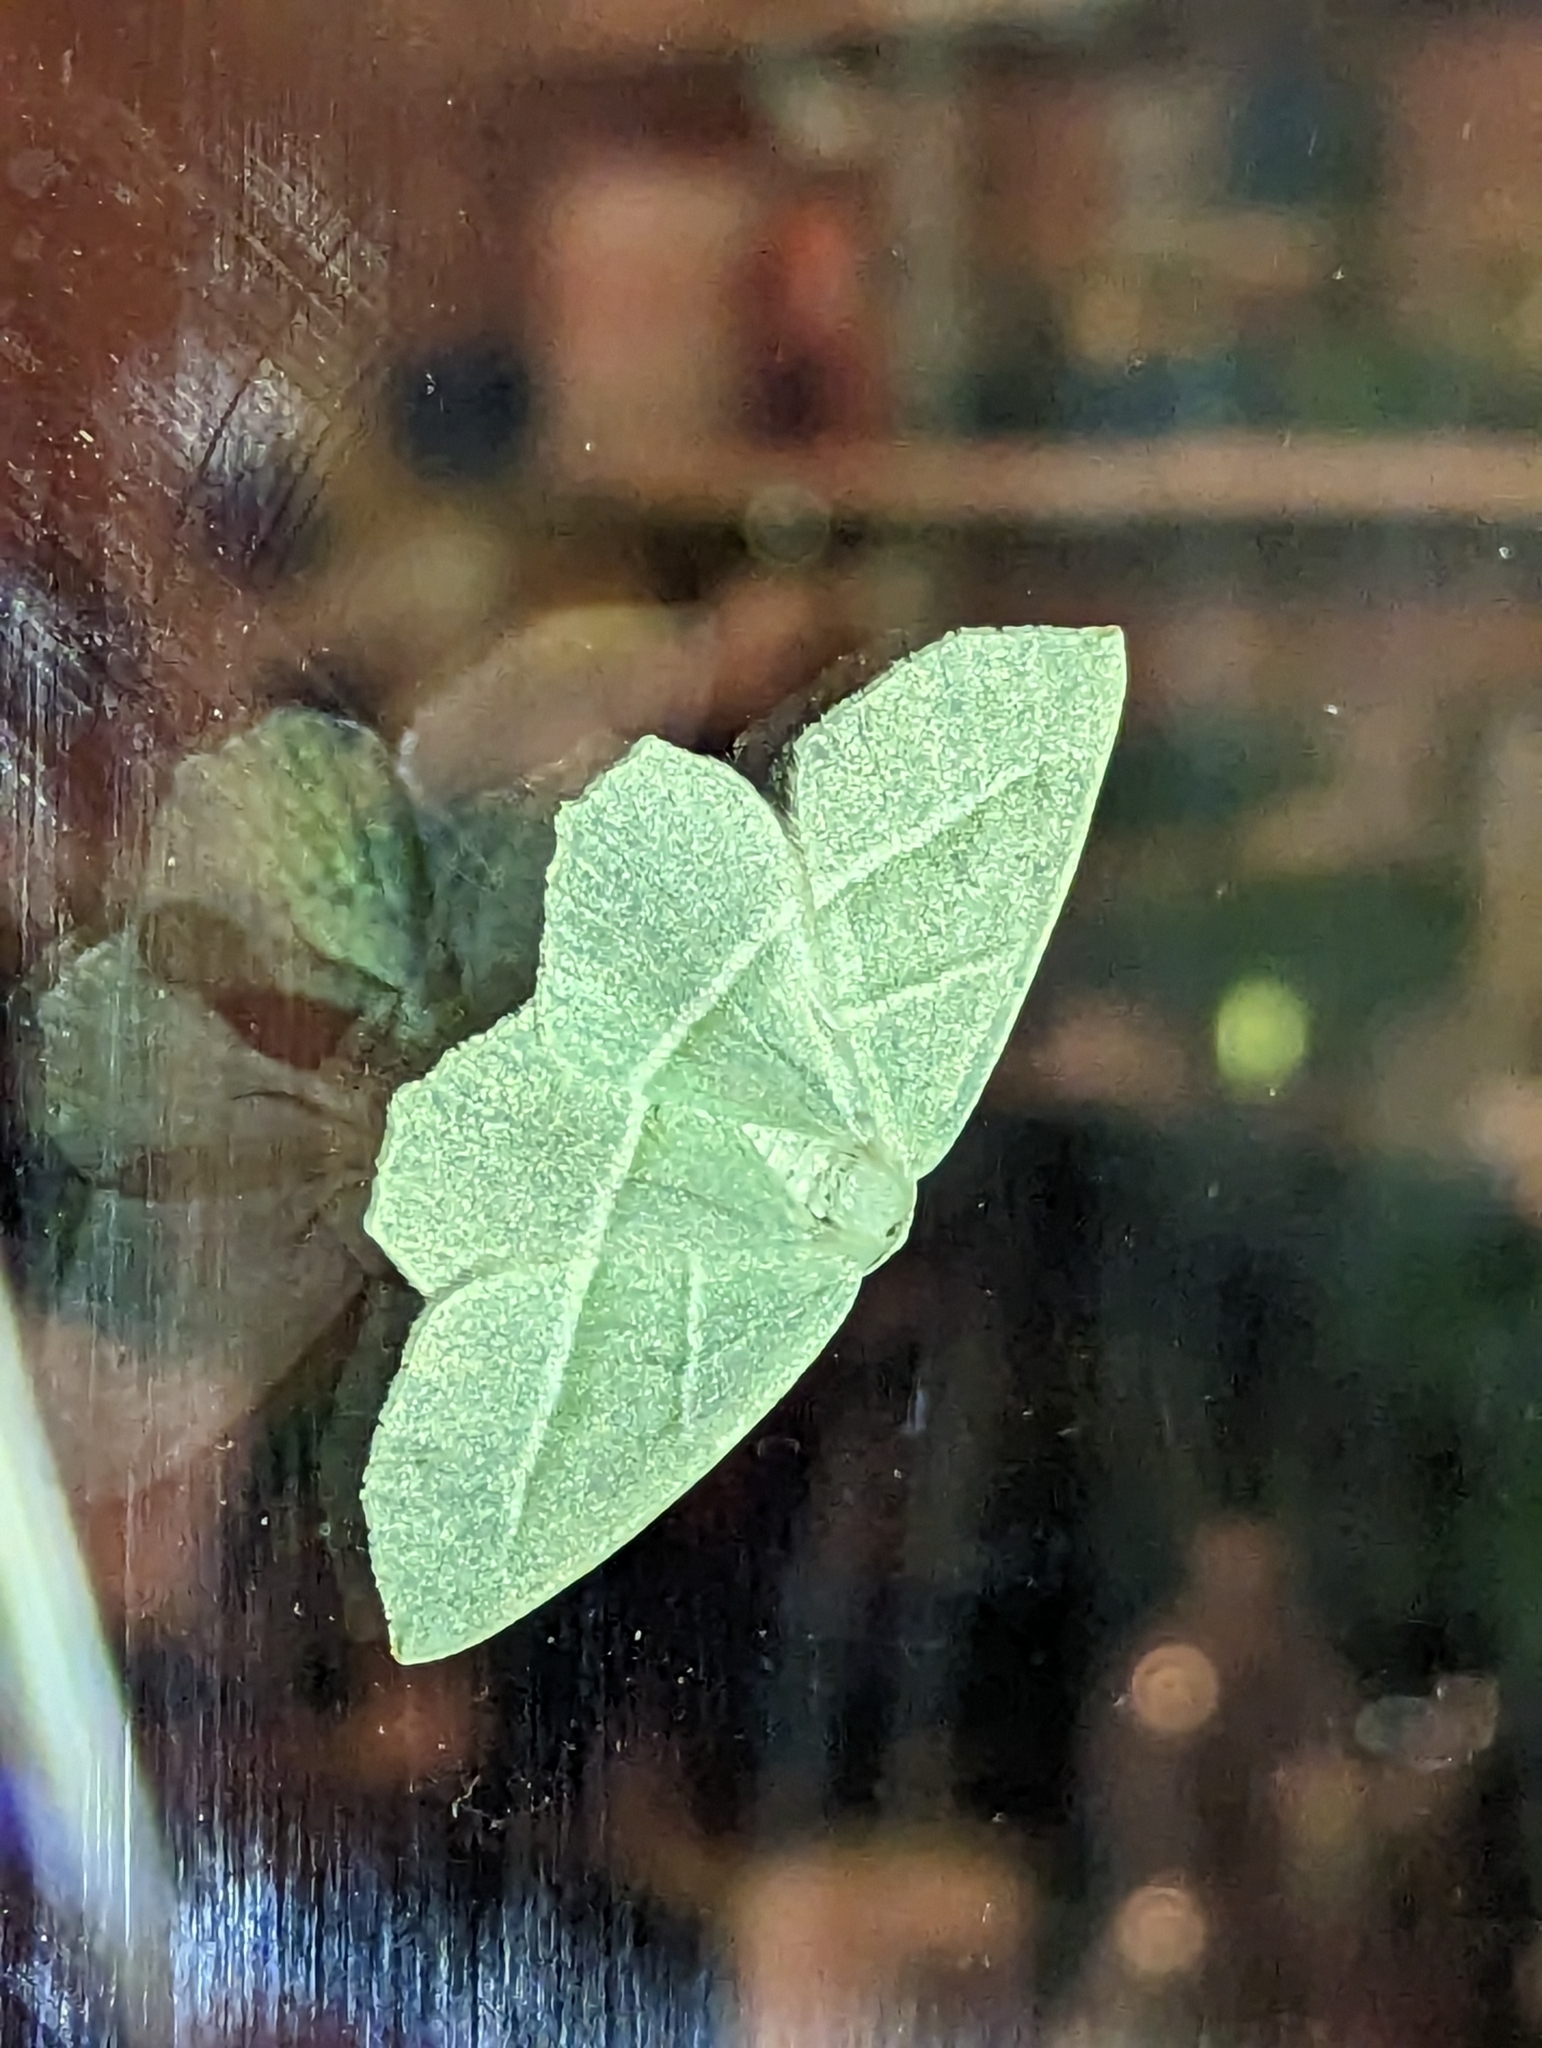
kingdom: Animalia
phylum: Arthropoda
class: Insecta
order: Lepidoptera
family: Geometridae
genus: Campaea
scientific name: Campaea margaritaria
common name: Light emerald
